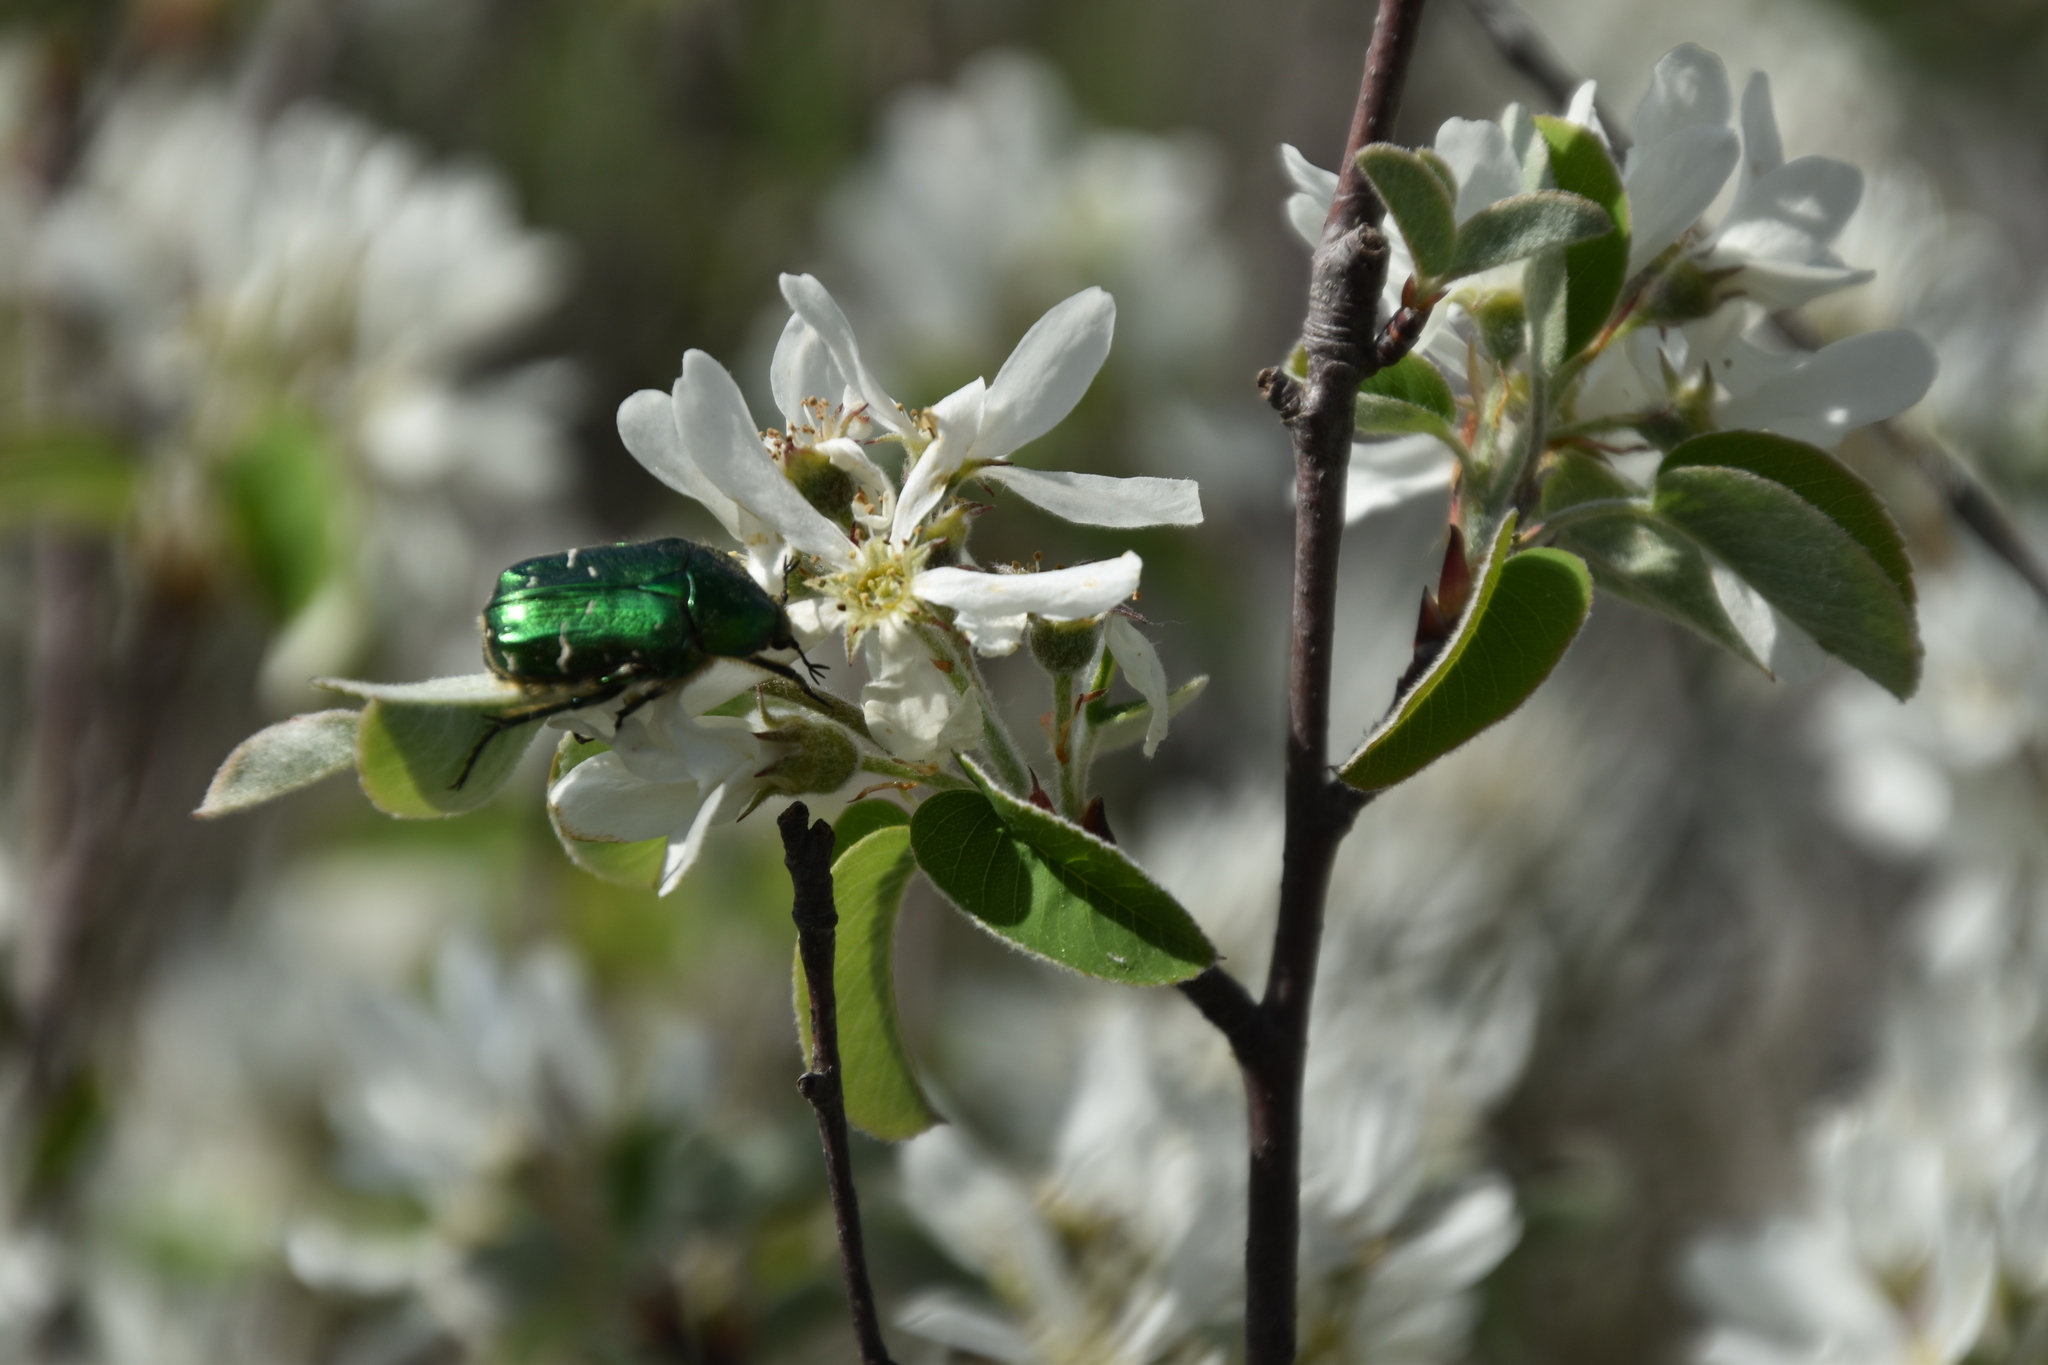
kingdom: Animalia
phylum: Arthropoda
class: Insecta
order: Coleoptera
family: Scarabaeidae
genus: Cetonia
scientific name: Cetonia aurata
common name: Rose chafer
